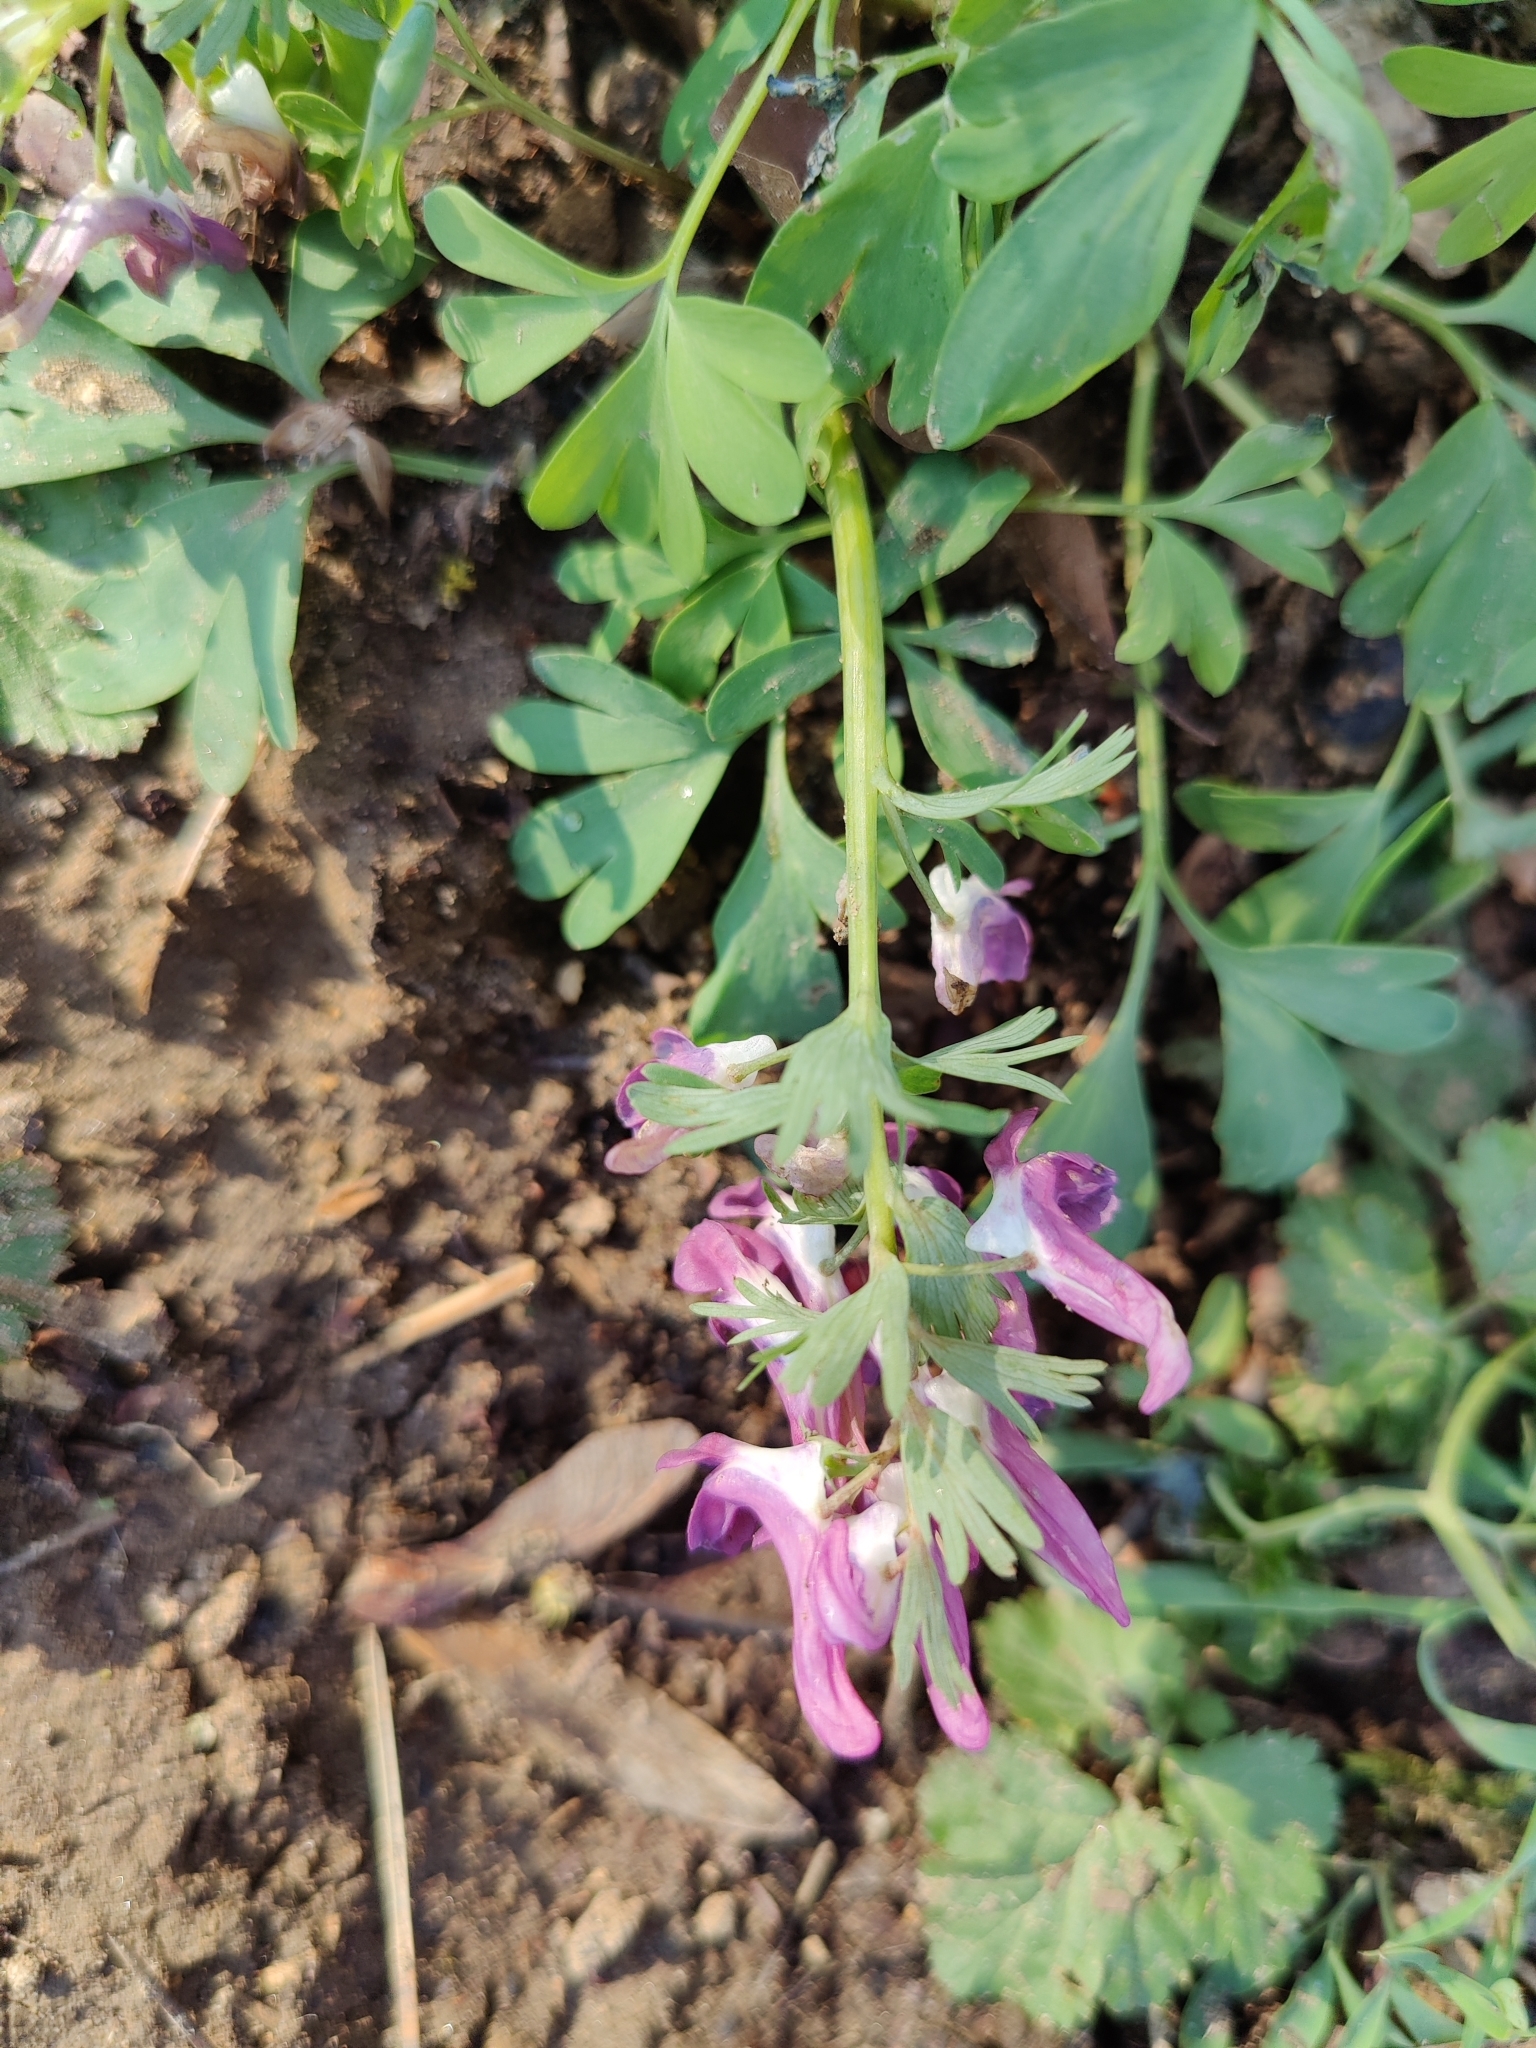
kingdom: Plantae
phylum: Tracheophyta
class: Magnoliopsida
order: Ranunculales
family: Papaveraceae
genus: Corydalis
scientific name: Corydalis solida
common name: Bird-in-a-bush
